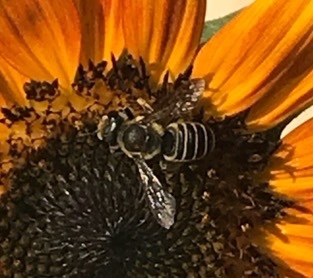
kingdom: Animalia
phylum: Arthropoda
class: Insecta
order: Hymenoptera
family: Megachilidae
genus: Megachile
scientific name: Megachile policaris
